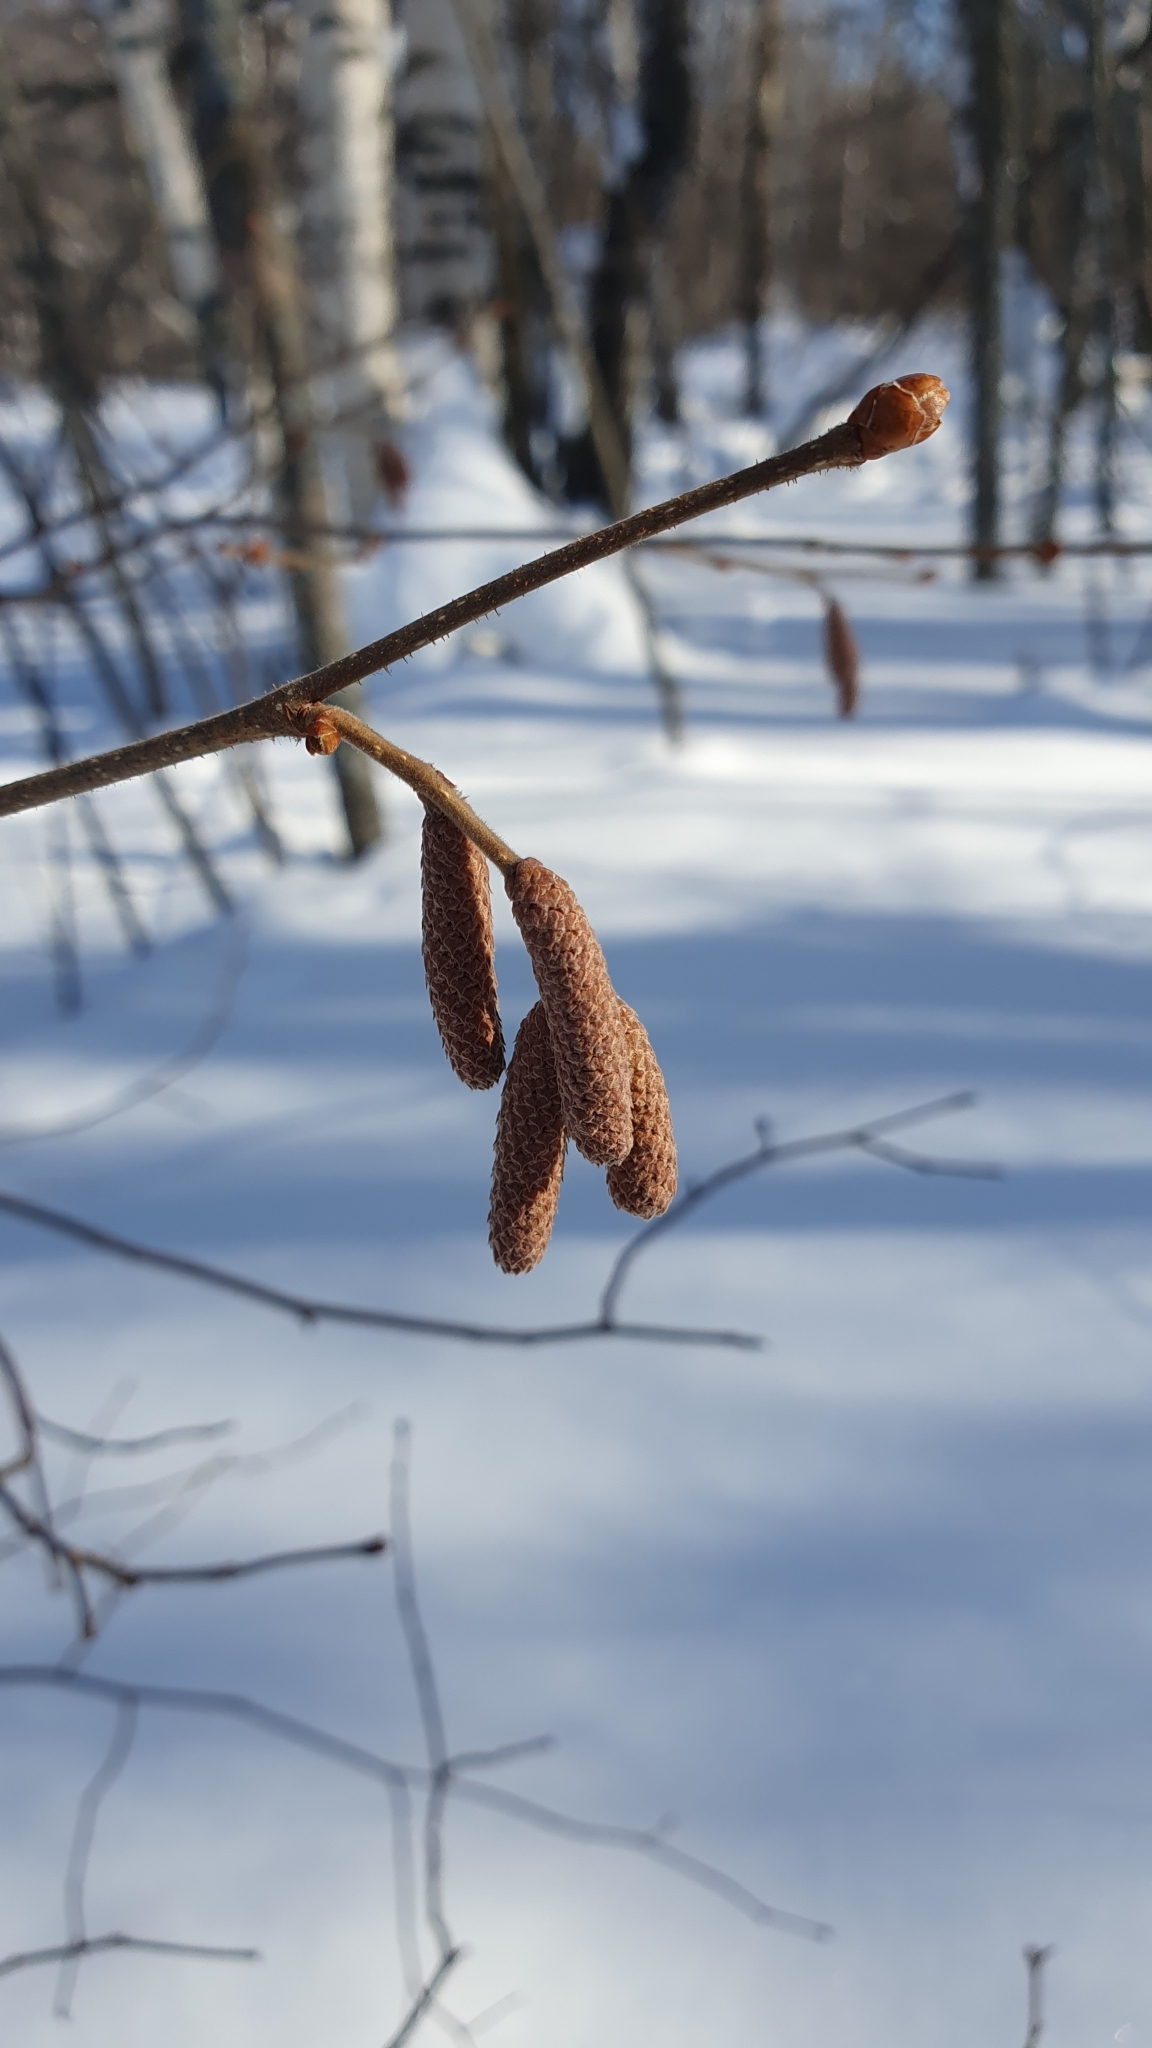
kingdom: Plantae
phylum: Tracheophyta
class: Magnoliopsida
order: Fagales
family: Betulaceae
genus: Corylus
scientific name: Corylus avellana
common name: European hazel
